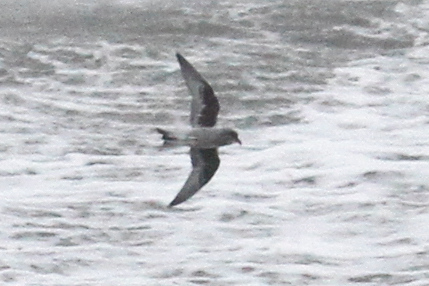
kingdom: Animalia
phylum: Chordata
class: Aves
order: Procellariiformes
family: Hydrobatidae
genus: Oceanodroma
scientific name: Oceanodroma furcata
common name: Fork-tailed storm-petrel
